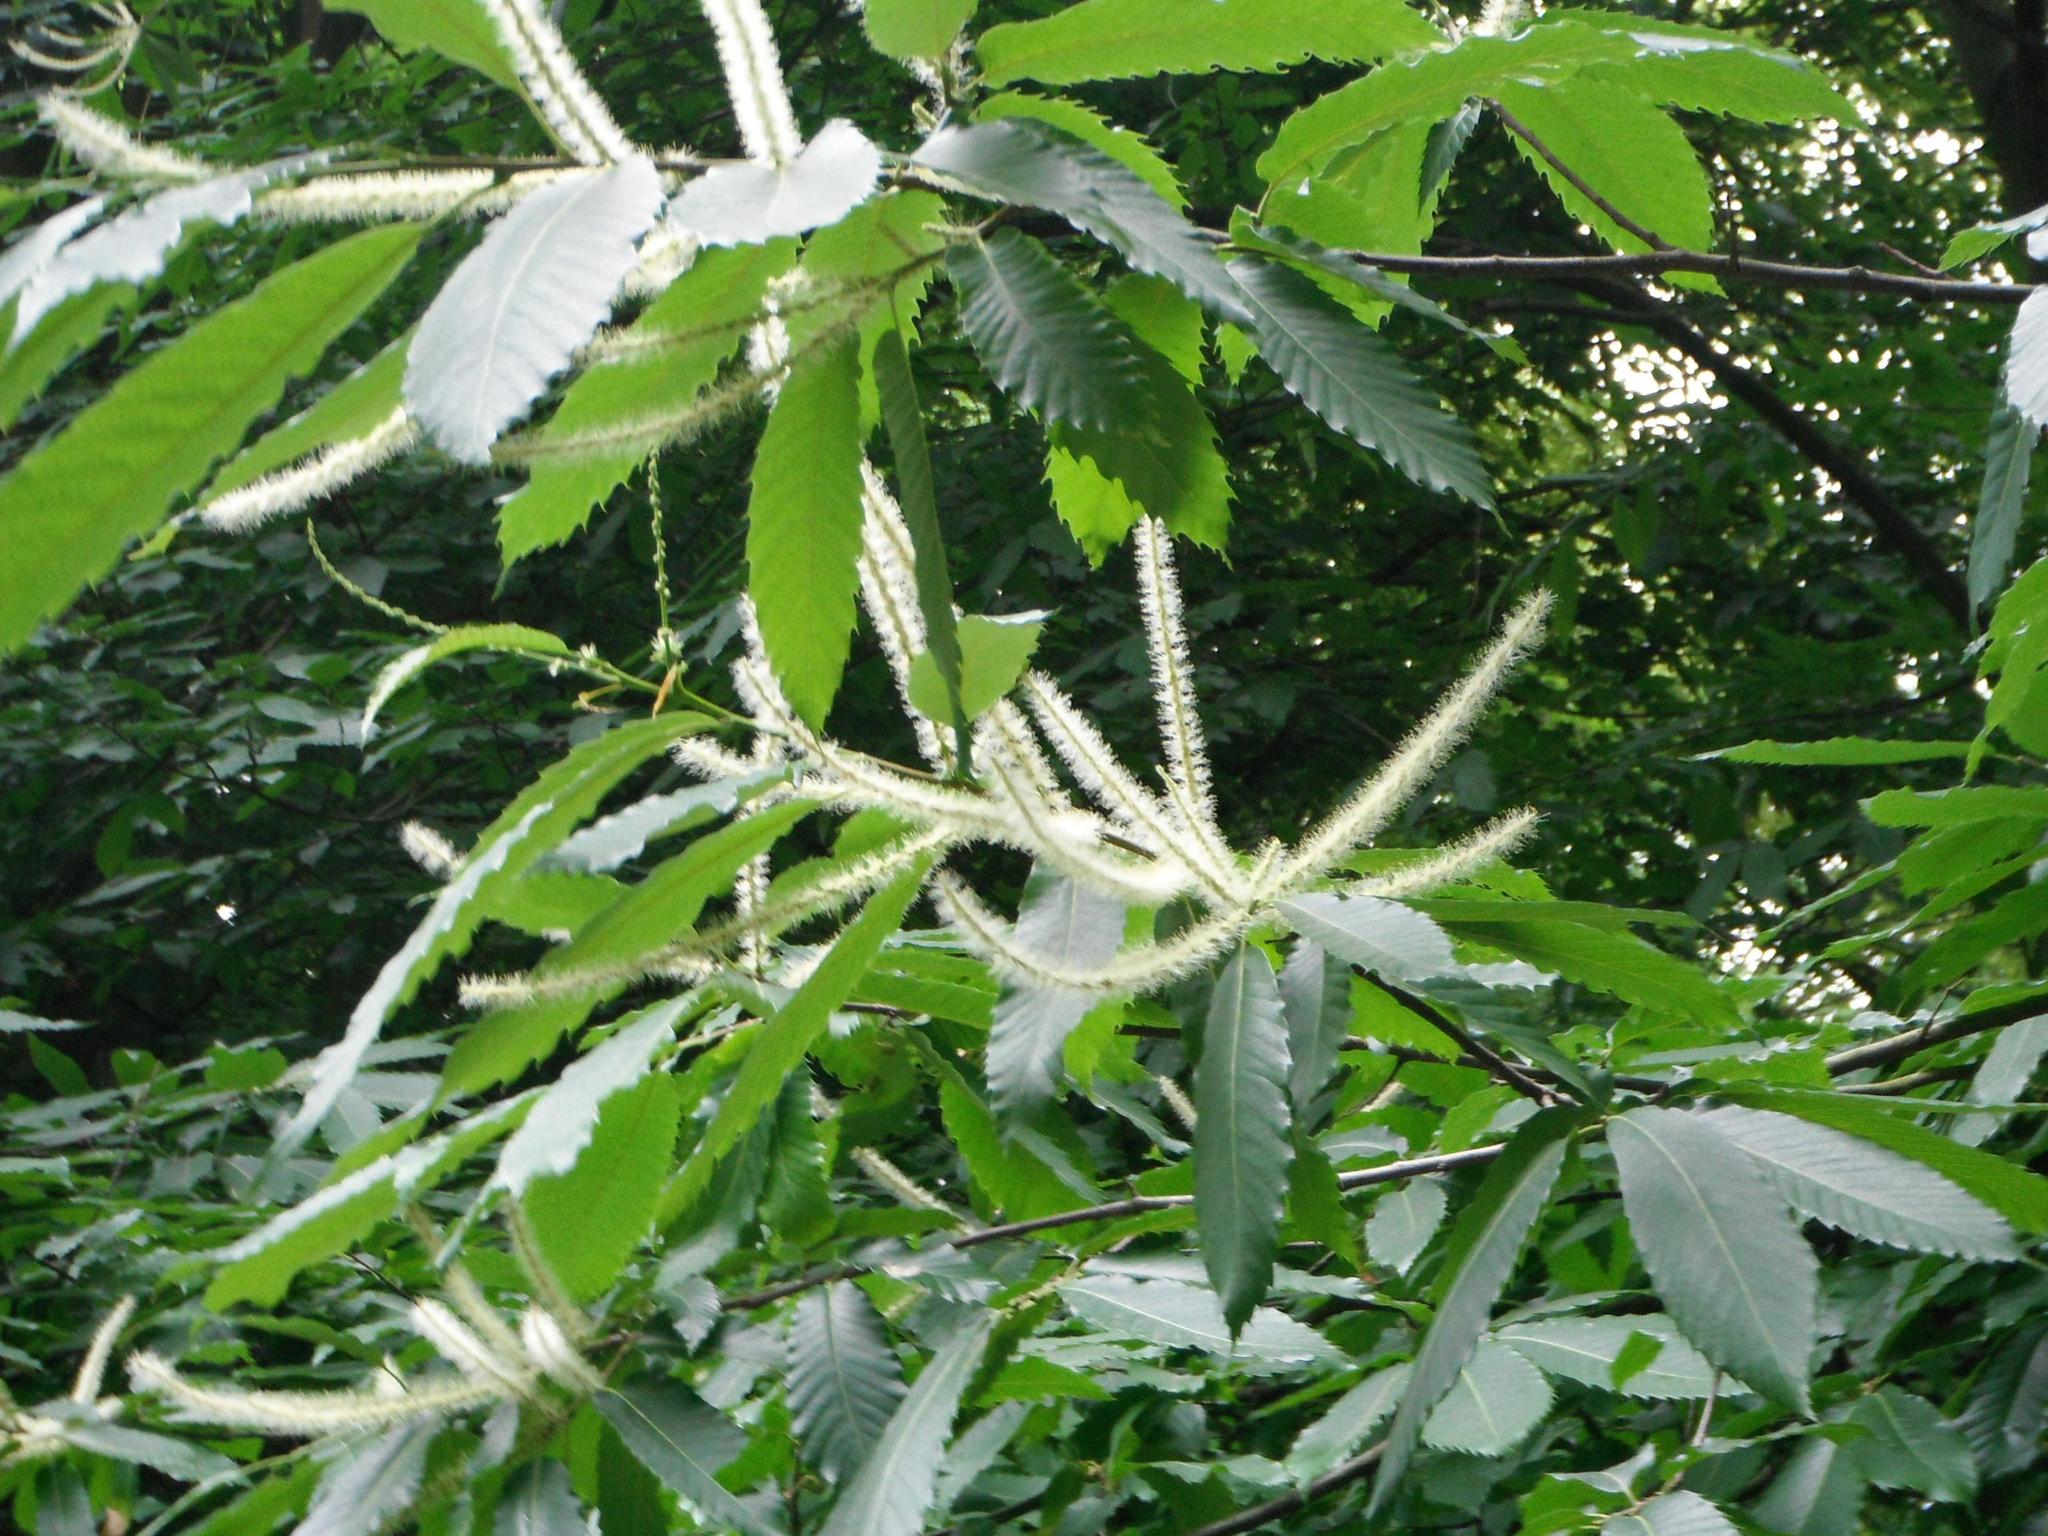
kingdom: Plantae
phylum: Tracheophyta
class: Magnoliopsida
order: Fagales
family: Fagaceae
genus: Castanea
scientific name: Castanea sativa
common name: Sweet chestnut
